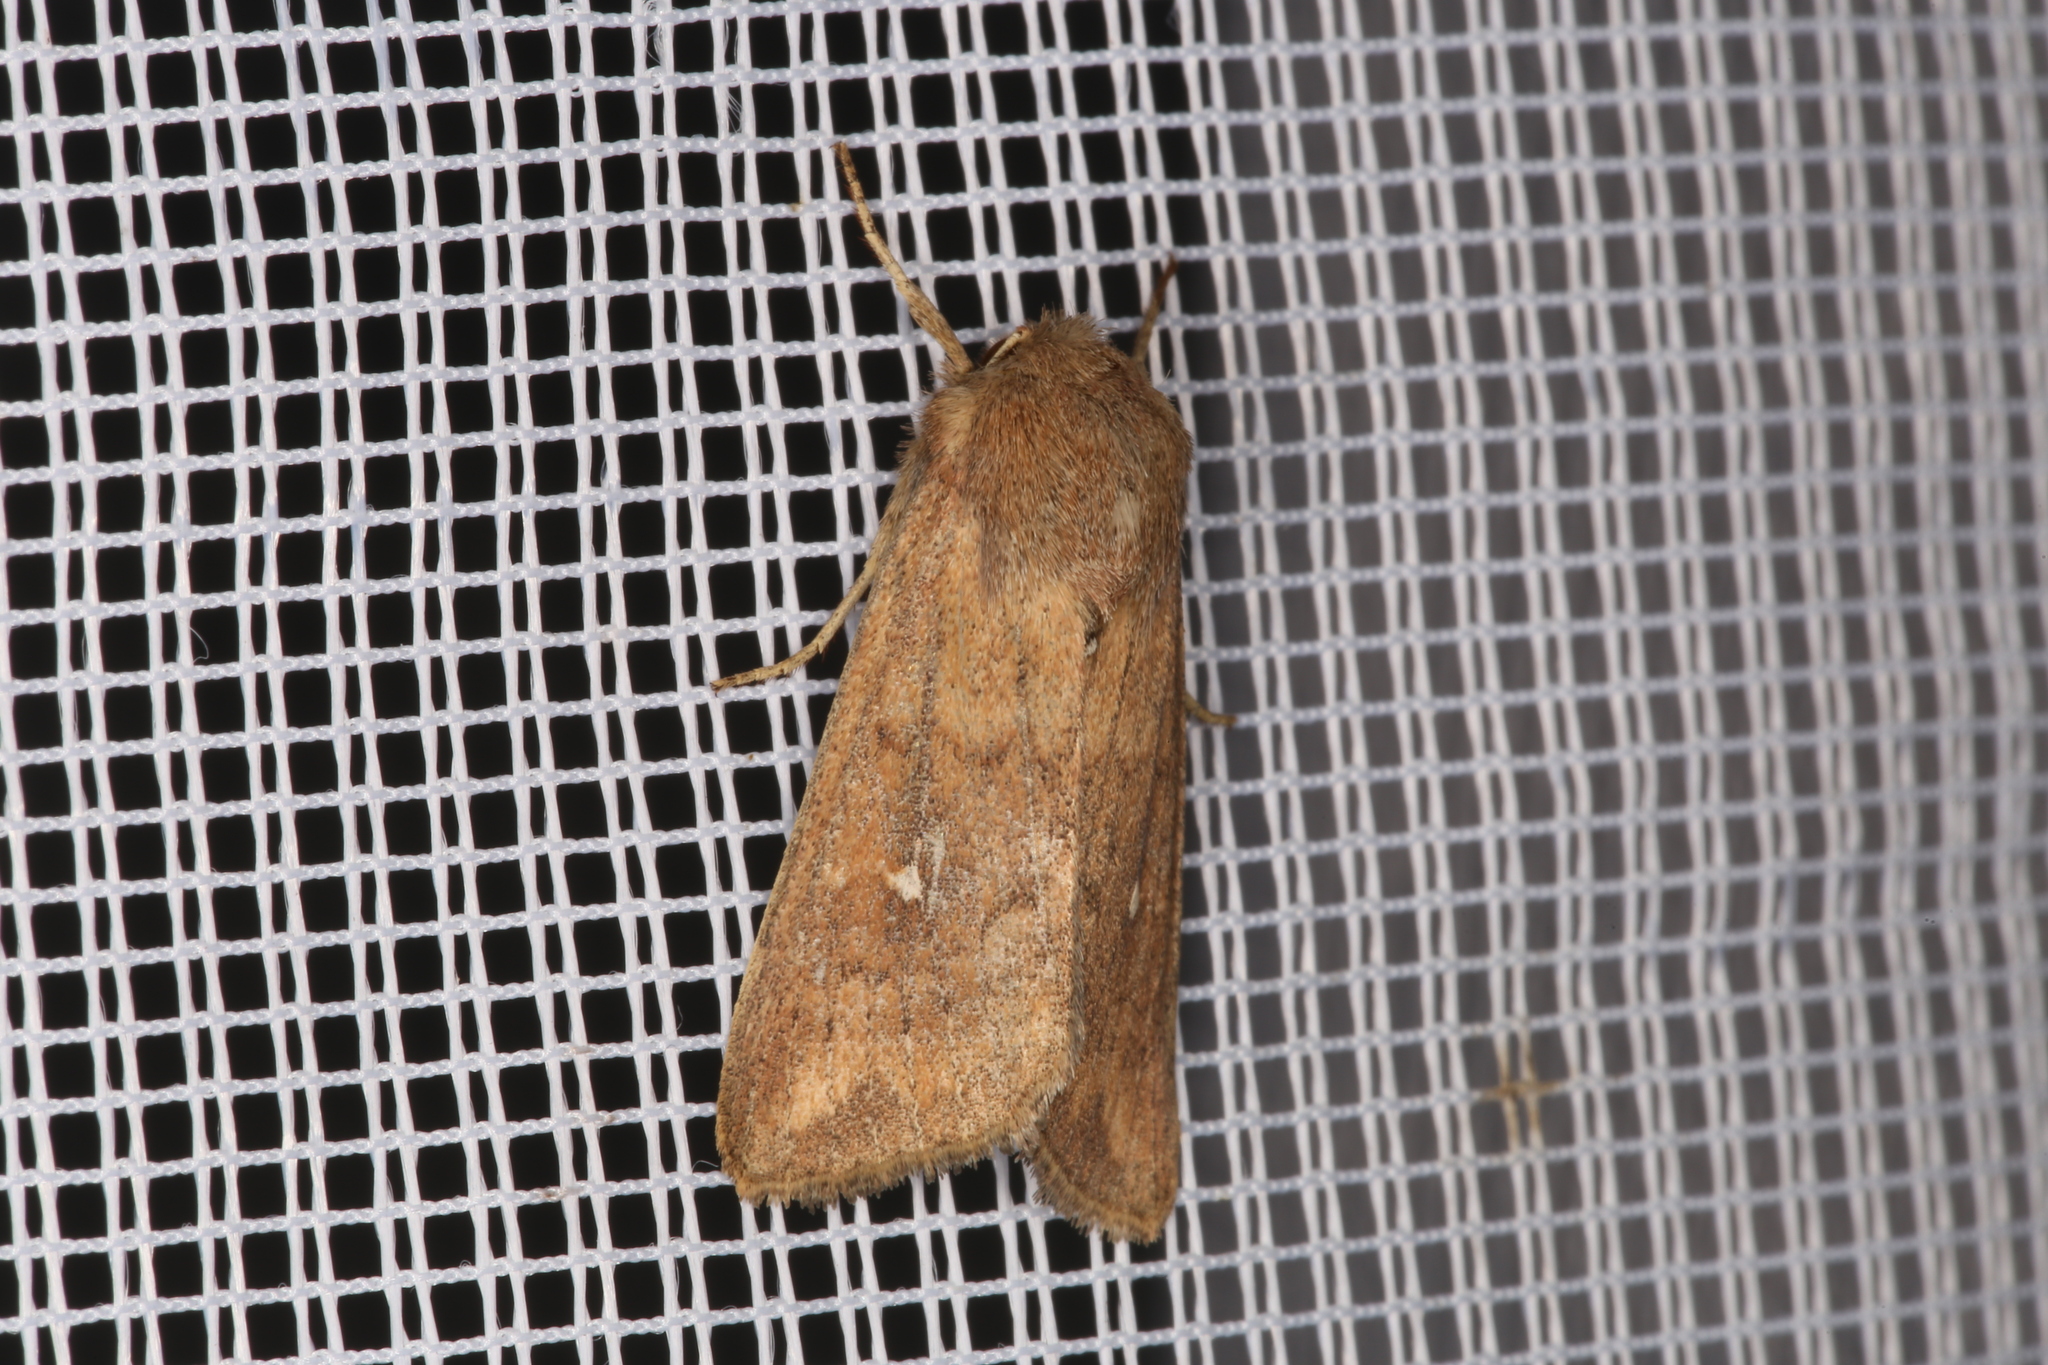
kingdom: Animalia
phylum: Arthropoda
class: Insecta
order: Lepidoptera
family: Noctuidae
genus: Mythimna
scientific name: Mythimna albipuncta
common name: White-point
